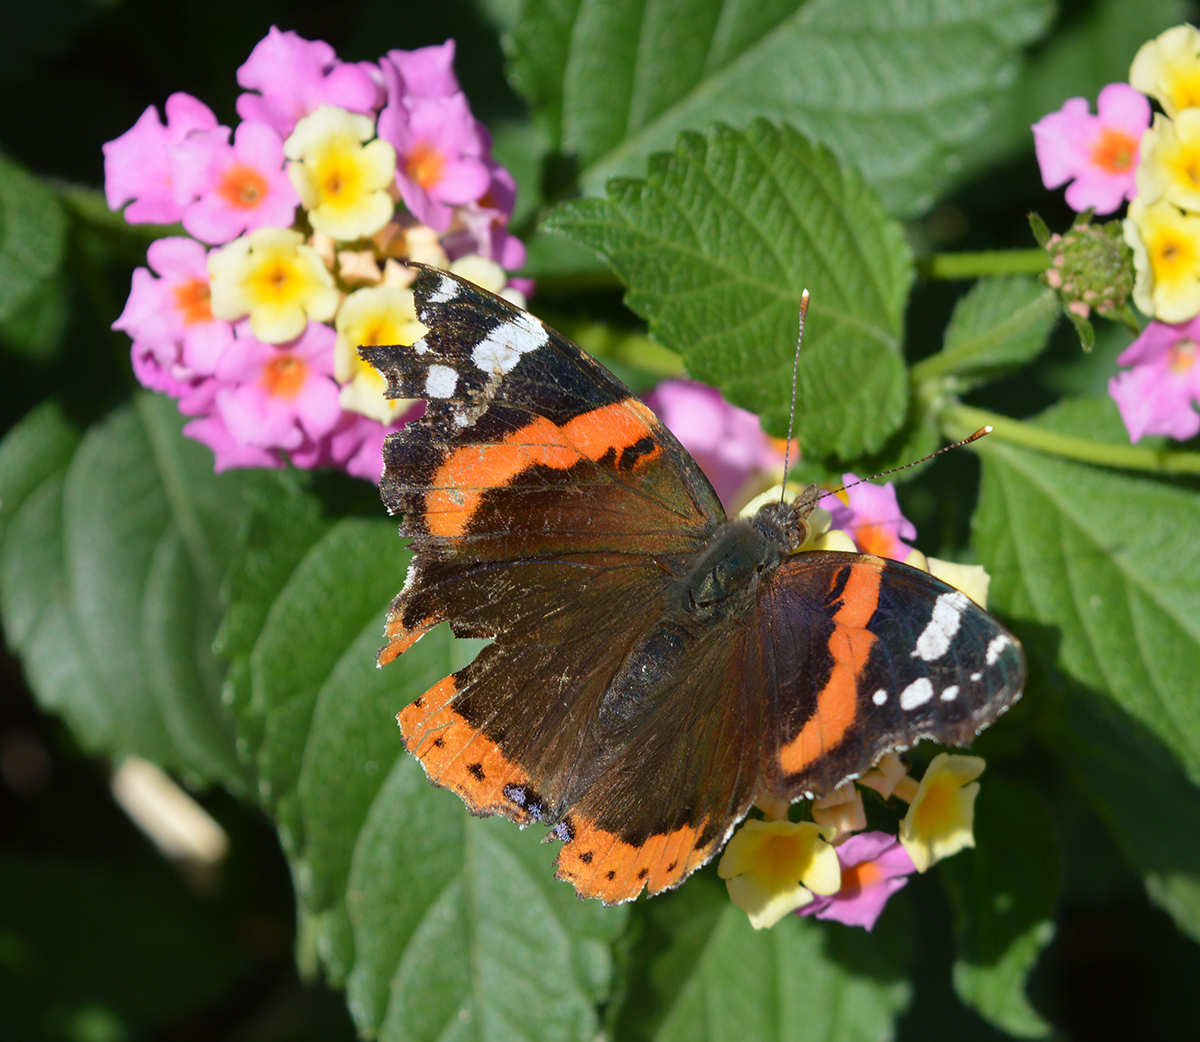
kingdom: Animalia
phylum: Arthropoda
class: Insecta
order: Lepidoptera
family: Nymphalidae
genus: Vanessa
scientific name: Vanessa atalanta
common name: Red admiral
